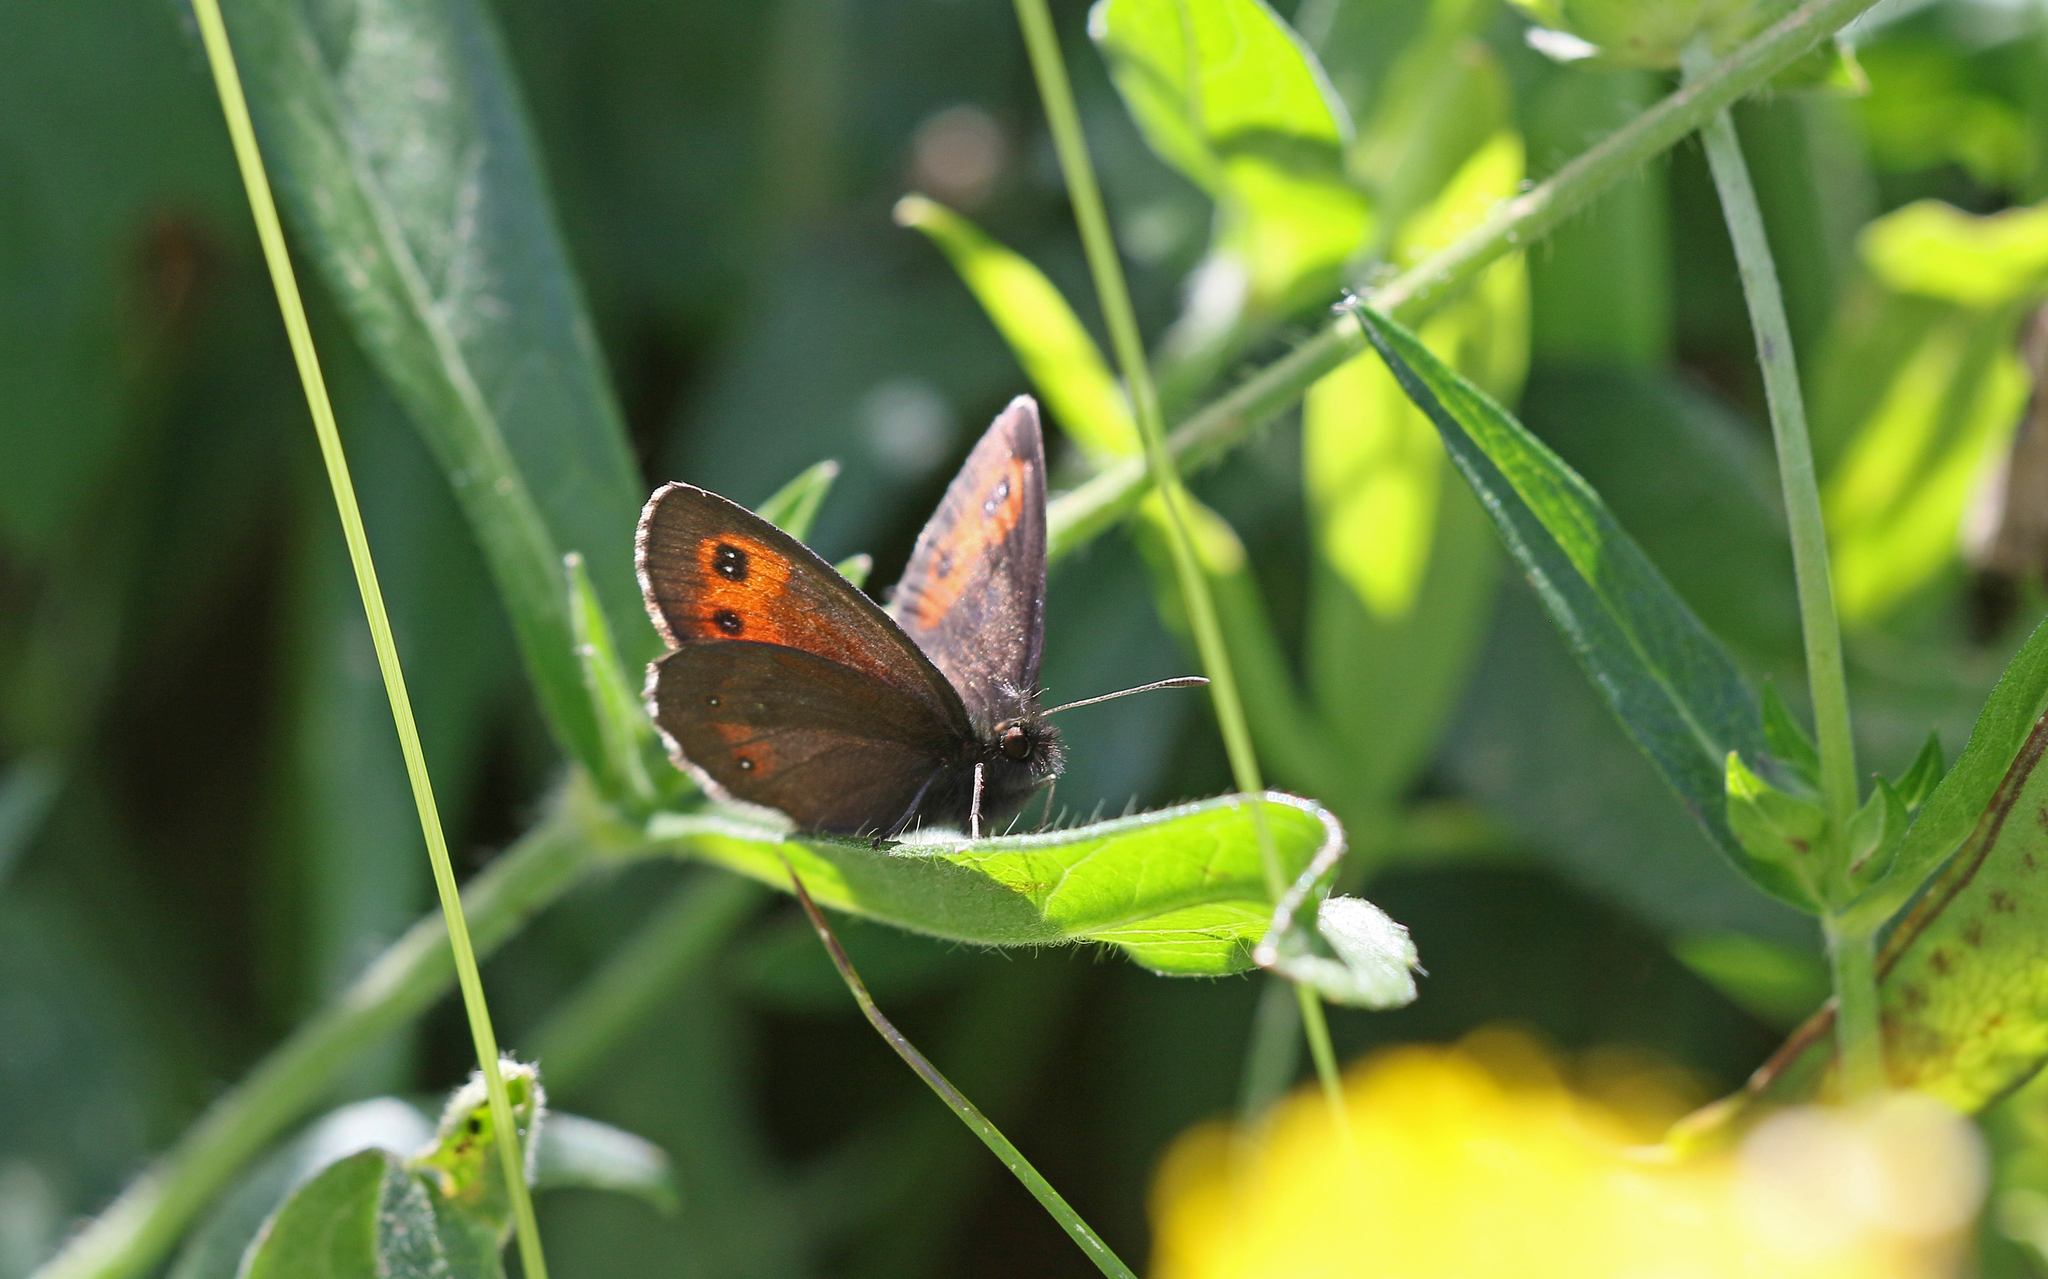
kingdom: Animalia
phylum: Arthropoda
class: Insecta
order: Lepidoptera
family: Nymphalidae
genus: Erebia
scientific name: Erebia euryale
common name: Large ringlet
